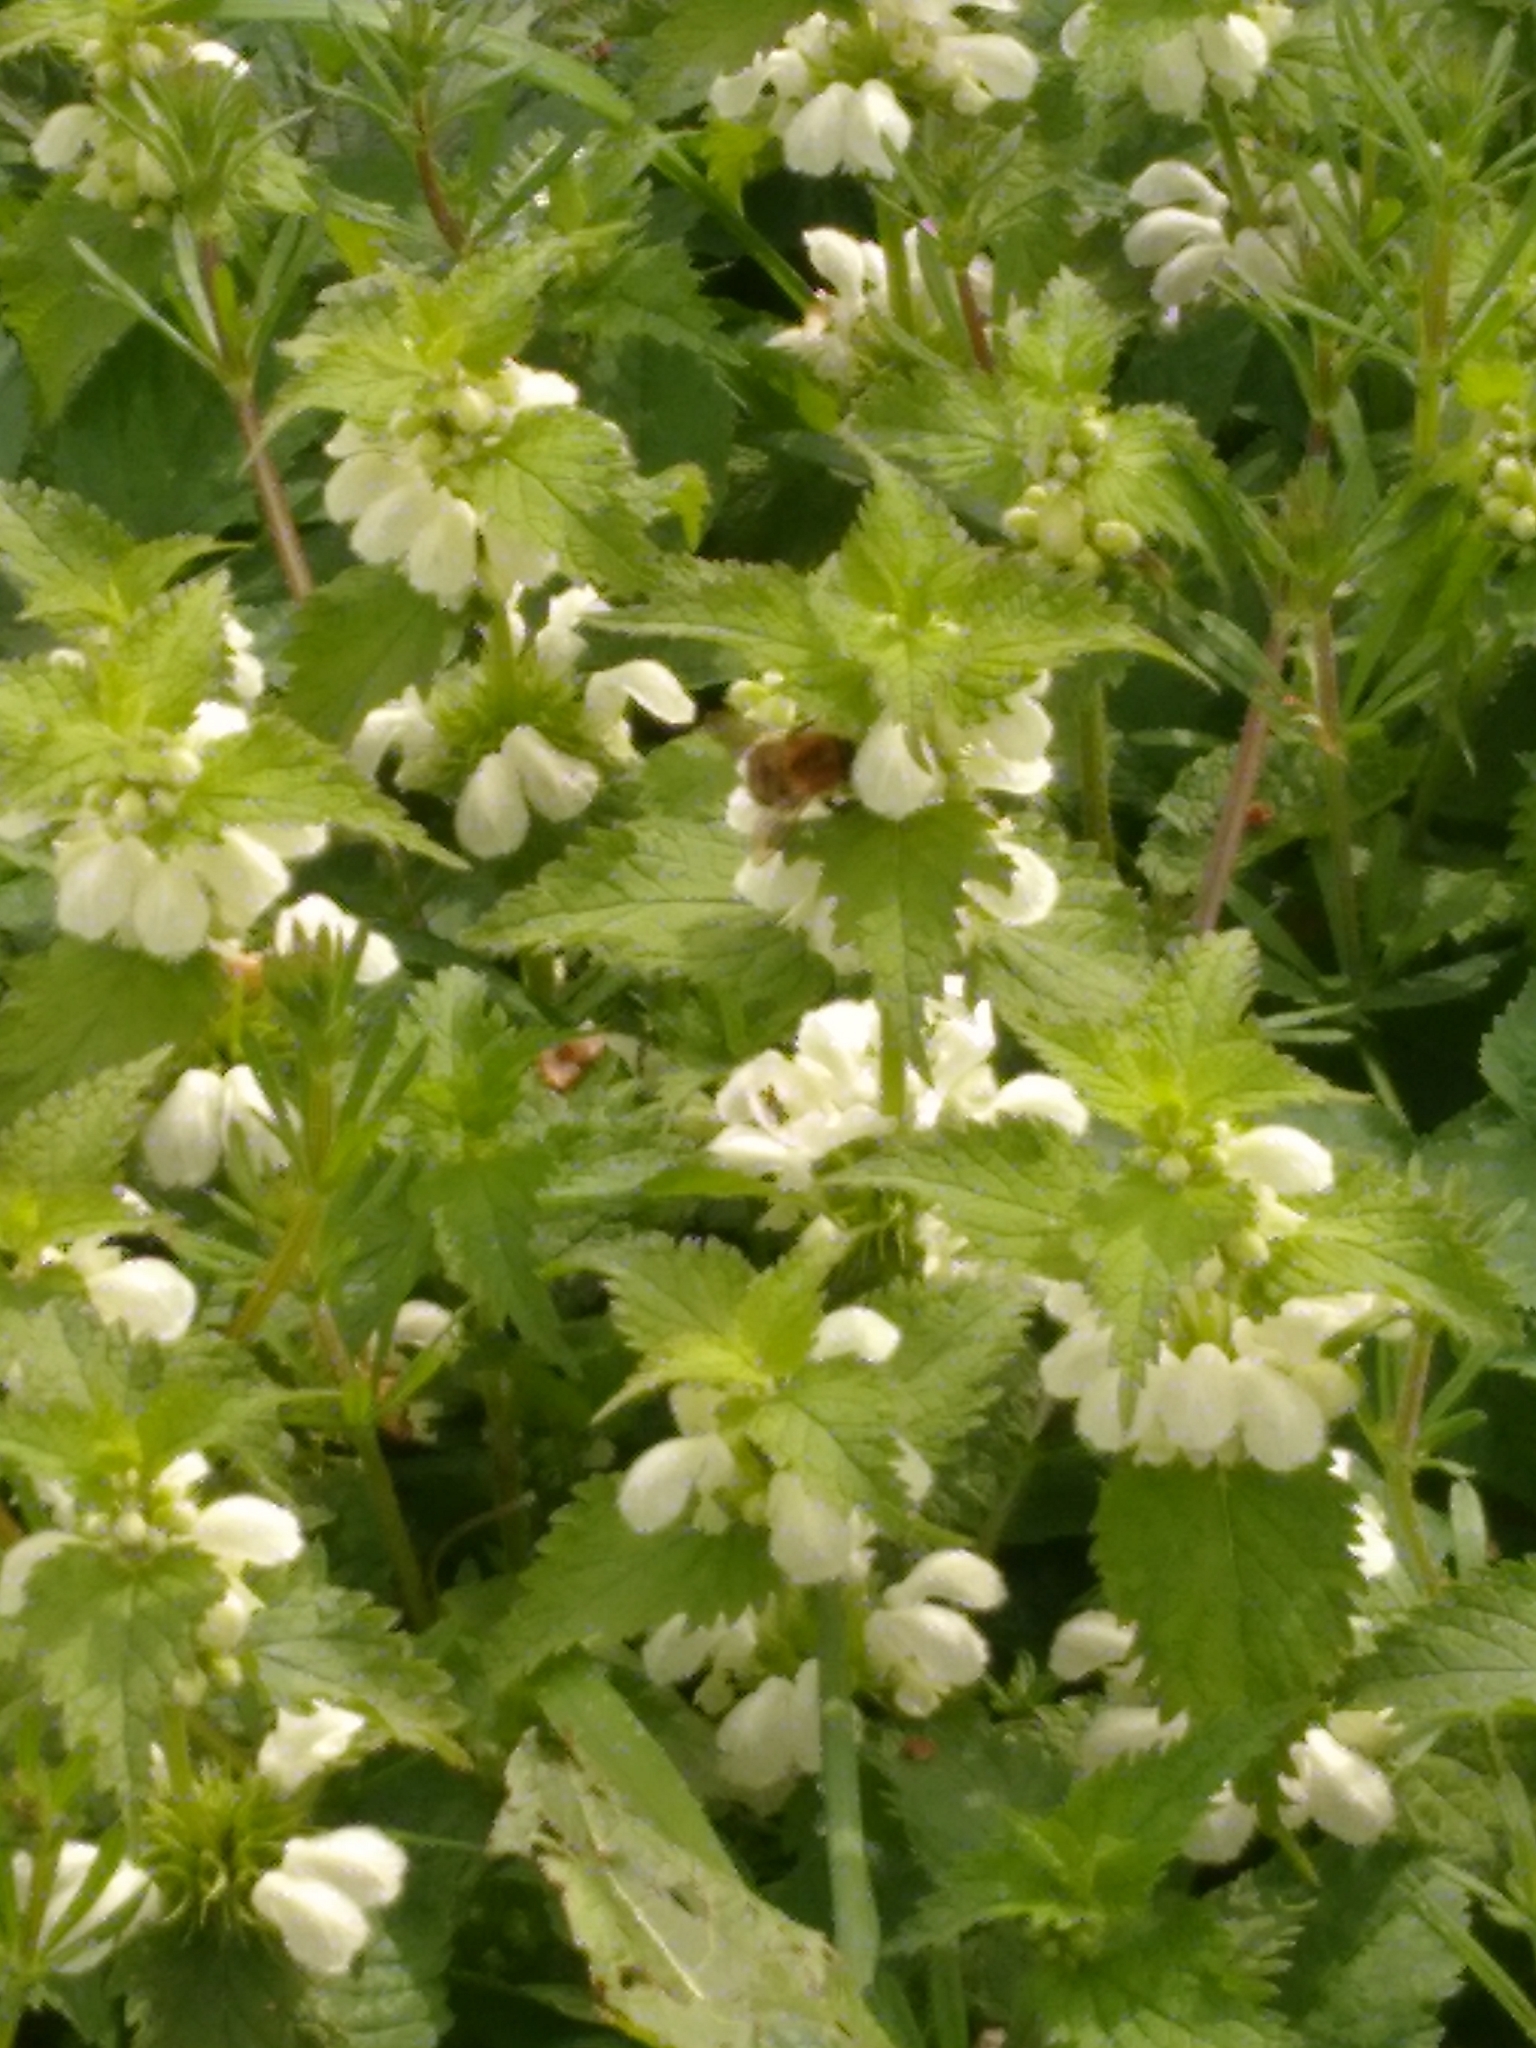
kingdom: Animalia
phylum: Arthropoda
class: Insecta
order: Hymenoptera
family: Apidae
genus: Bombus
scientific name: Bombus pascuorum
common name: Common carder bee
